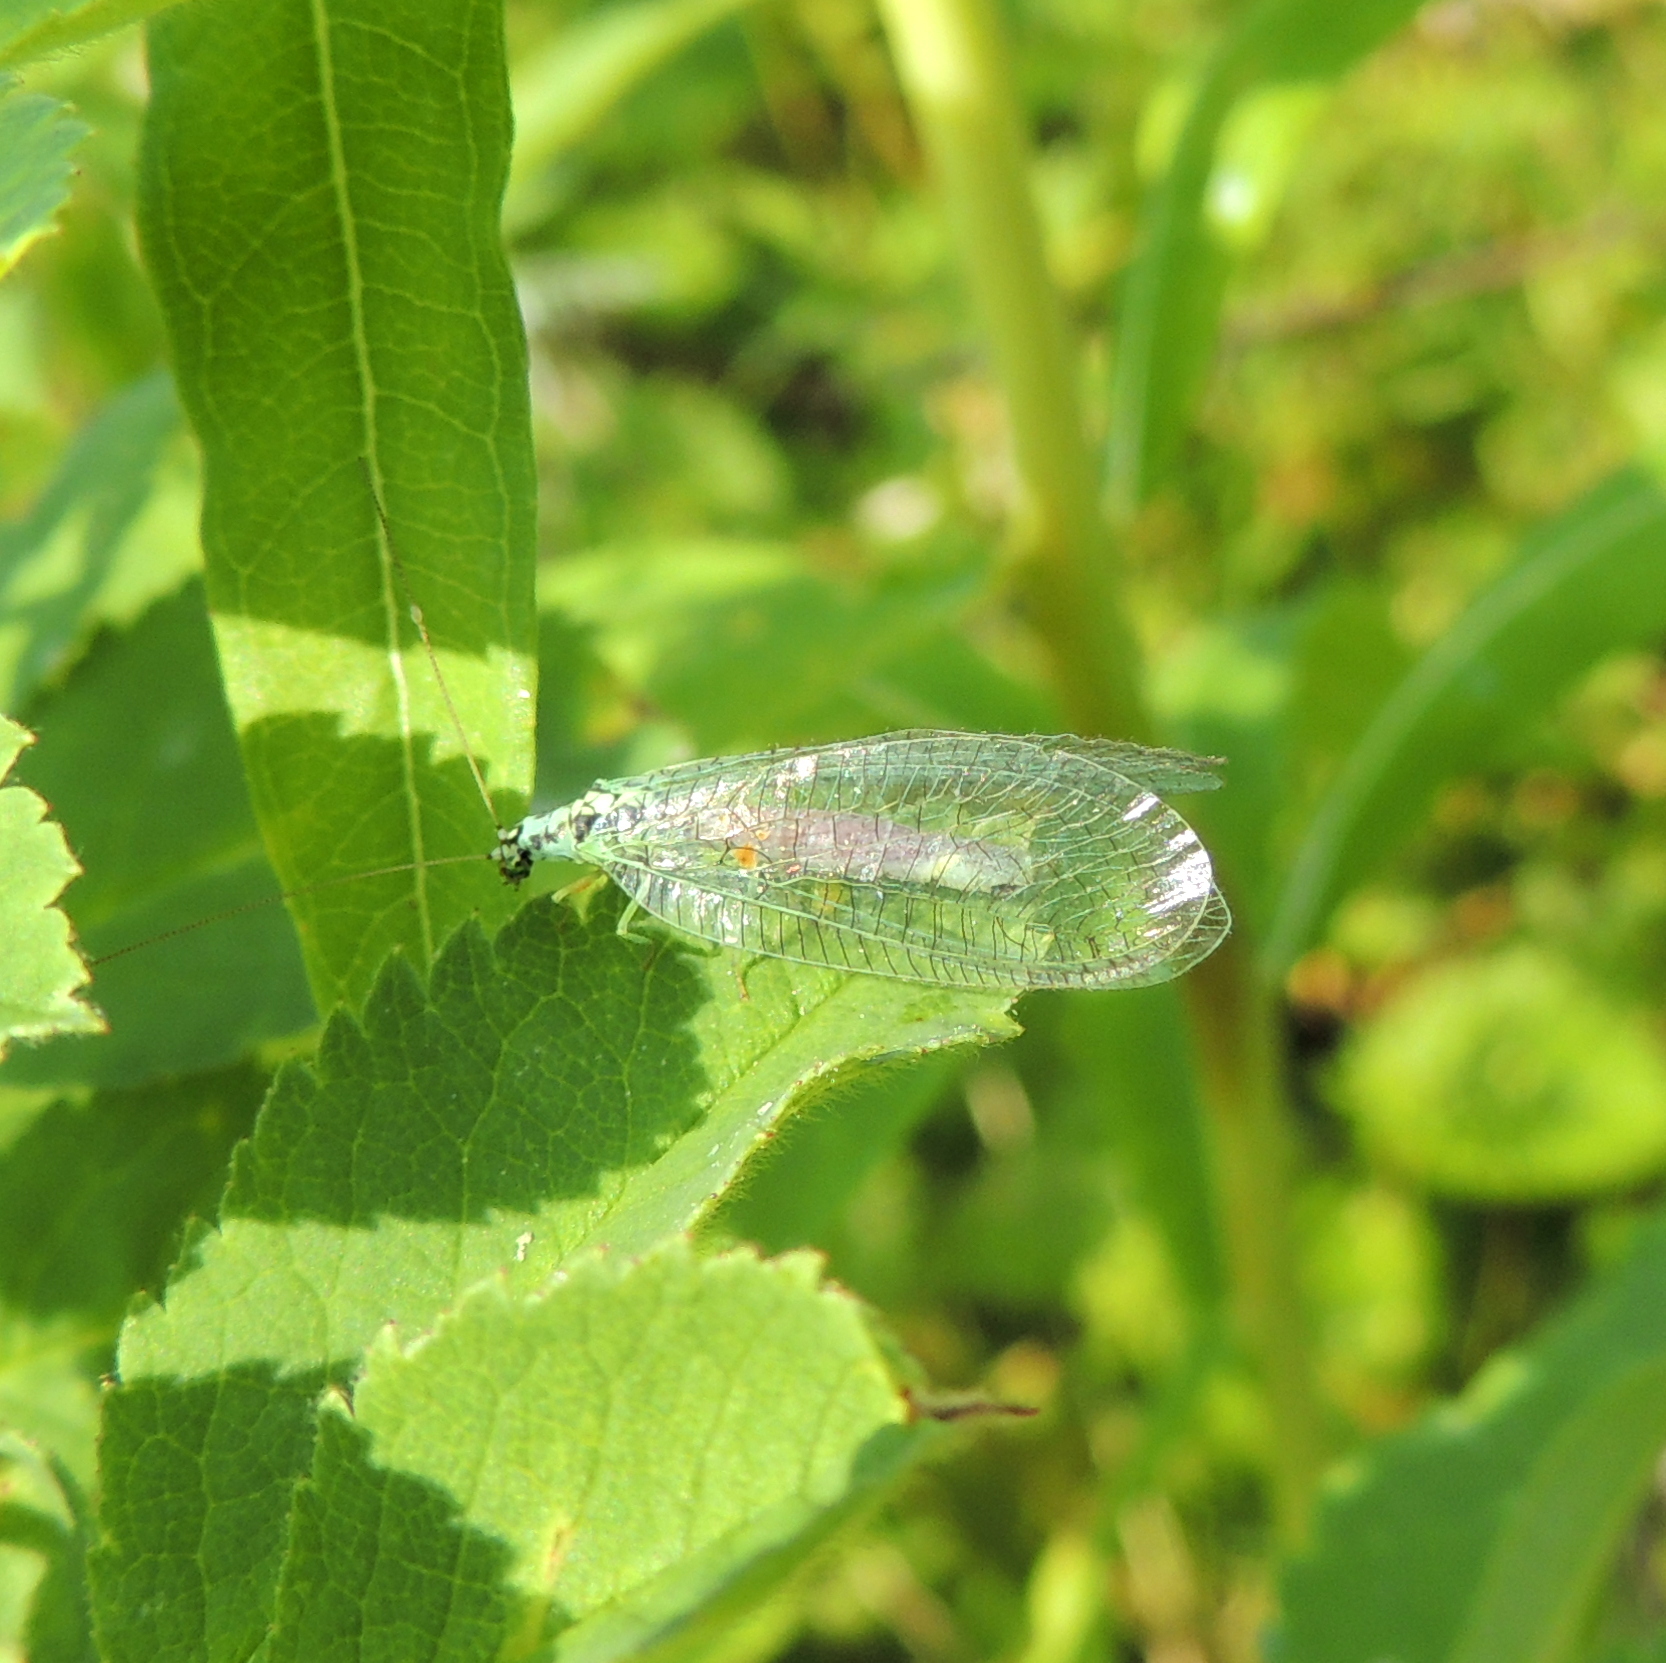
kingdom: Animalia
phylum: Arthropoda
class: Insecta
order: Neuroptera
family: Chrysopidae
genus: Chrysopa
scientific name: Chrysopa perla
